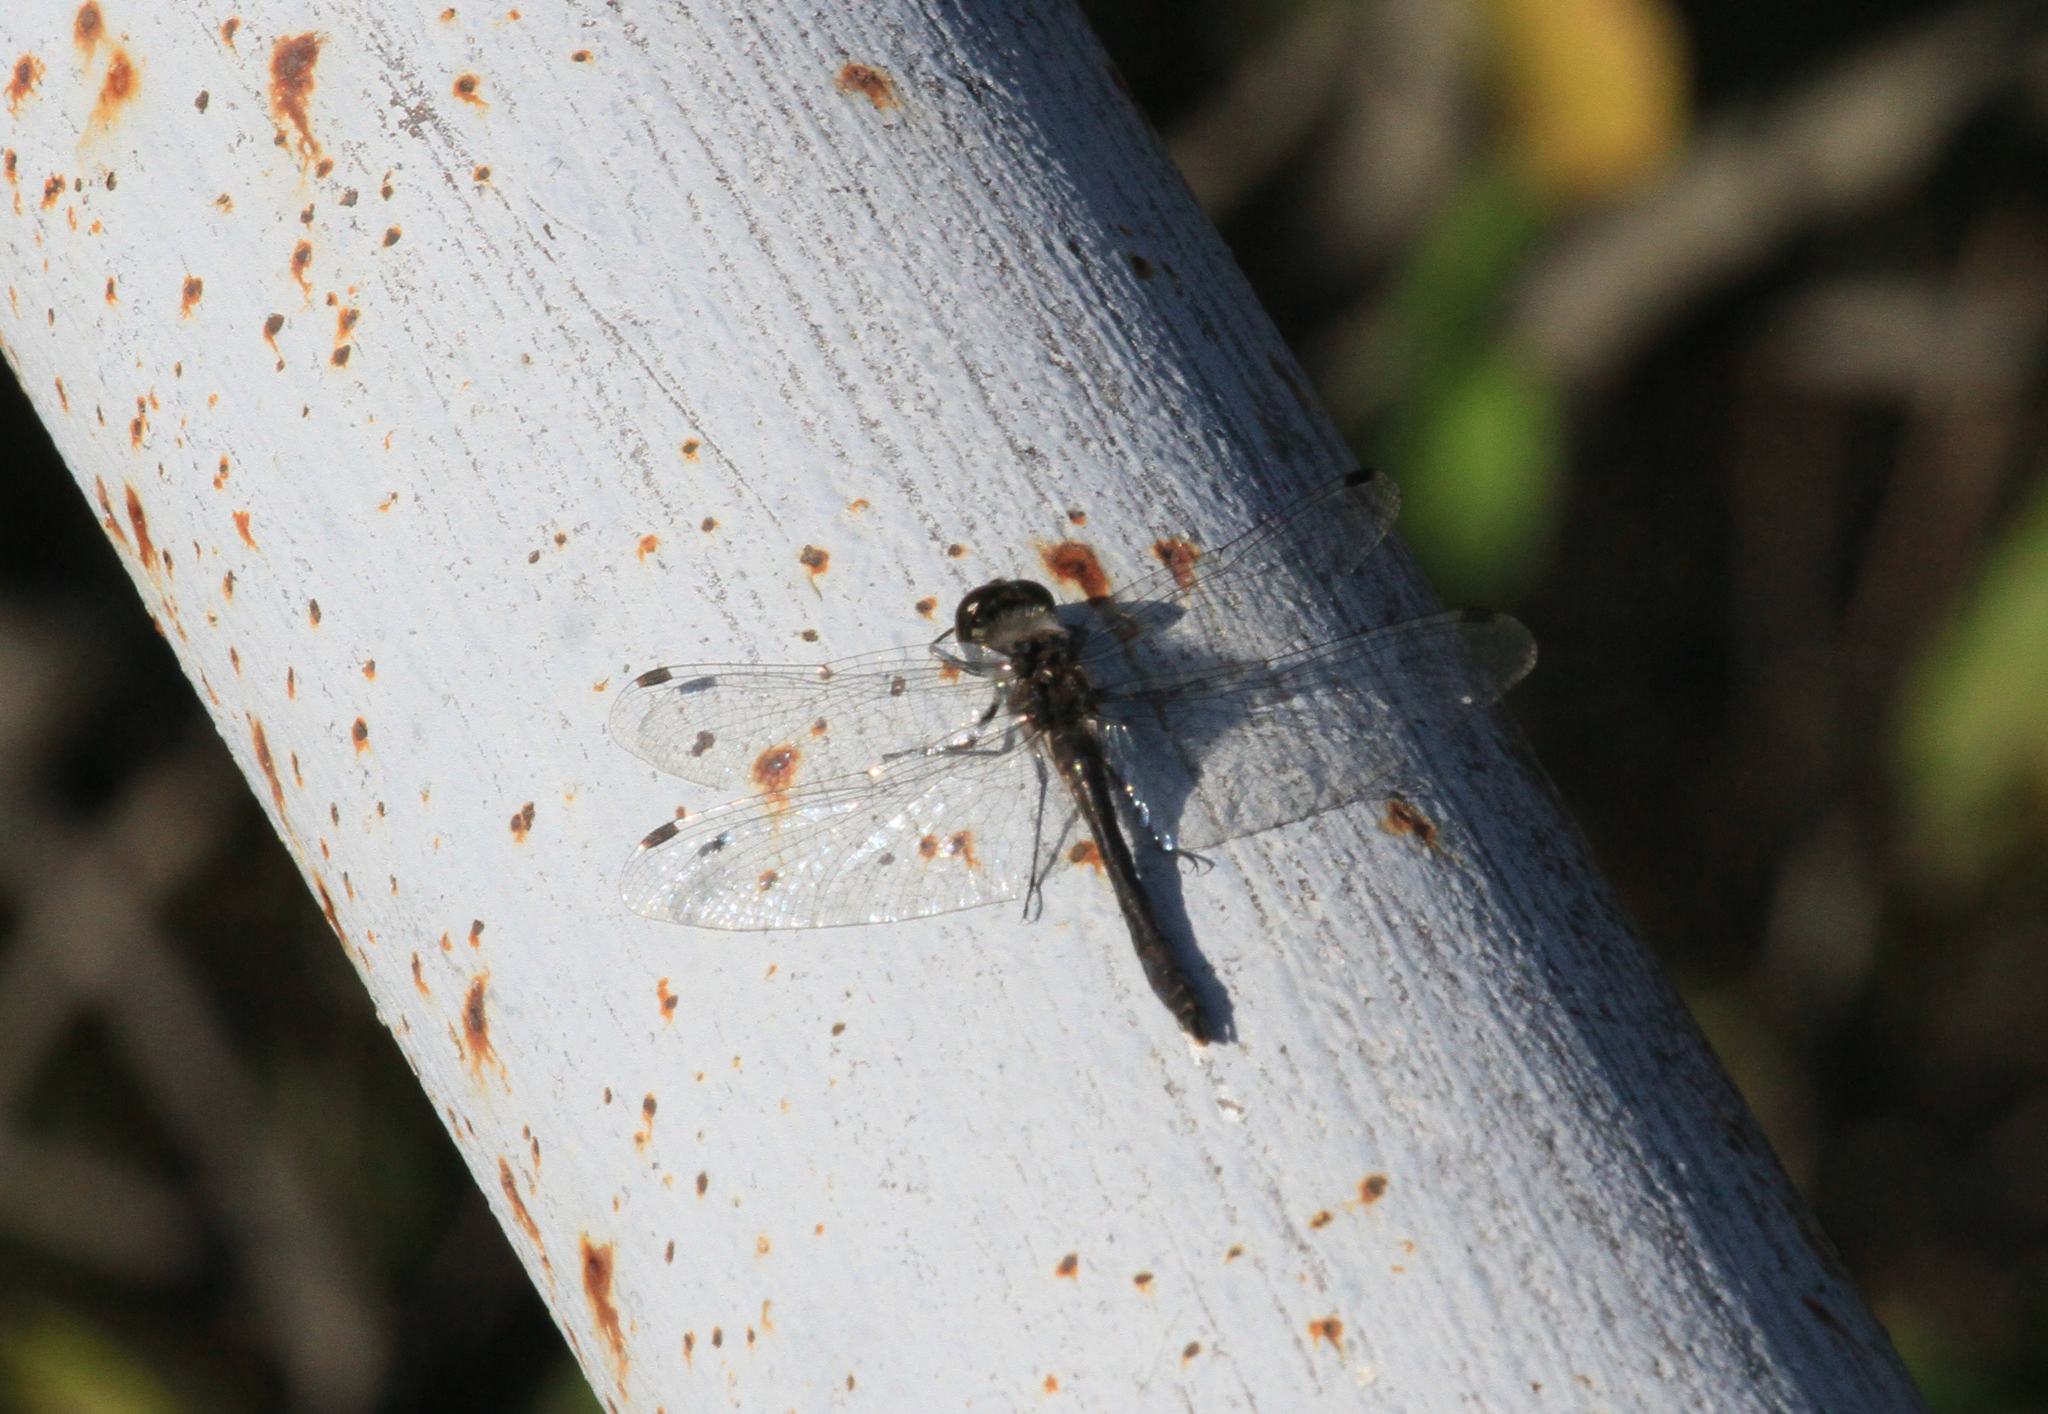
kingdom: Animalia
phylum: Arthropoda
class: Insecta
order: Odonata
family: Libellulidae
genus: Sympetrum
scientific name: Sympetrum danae
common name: Black darter
